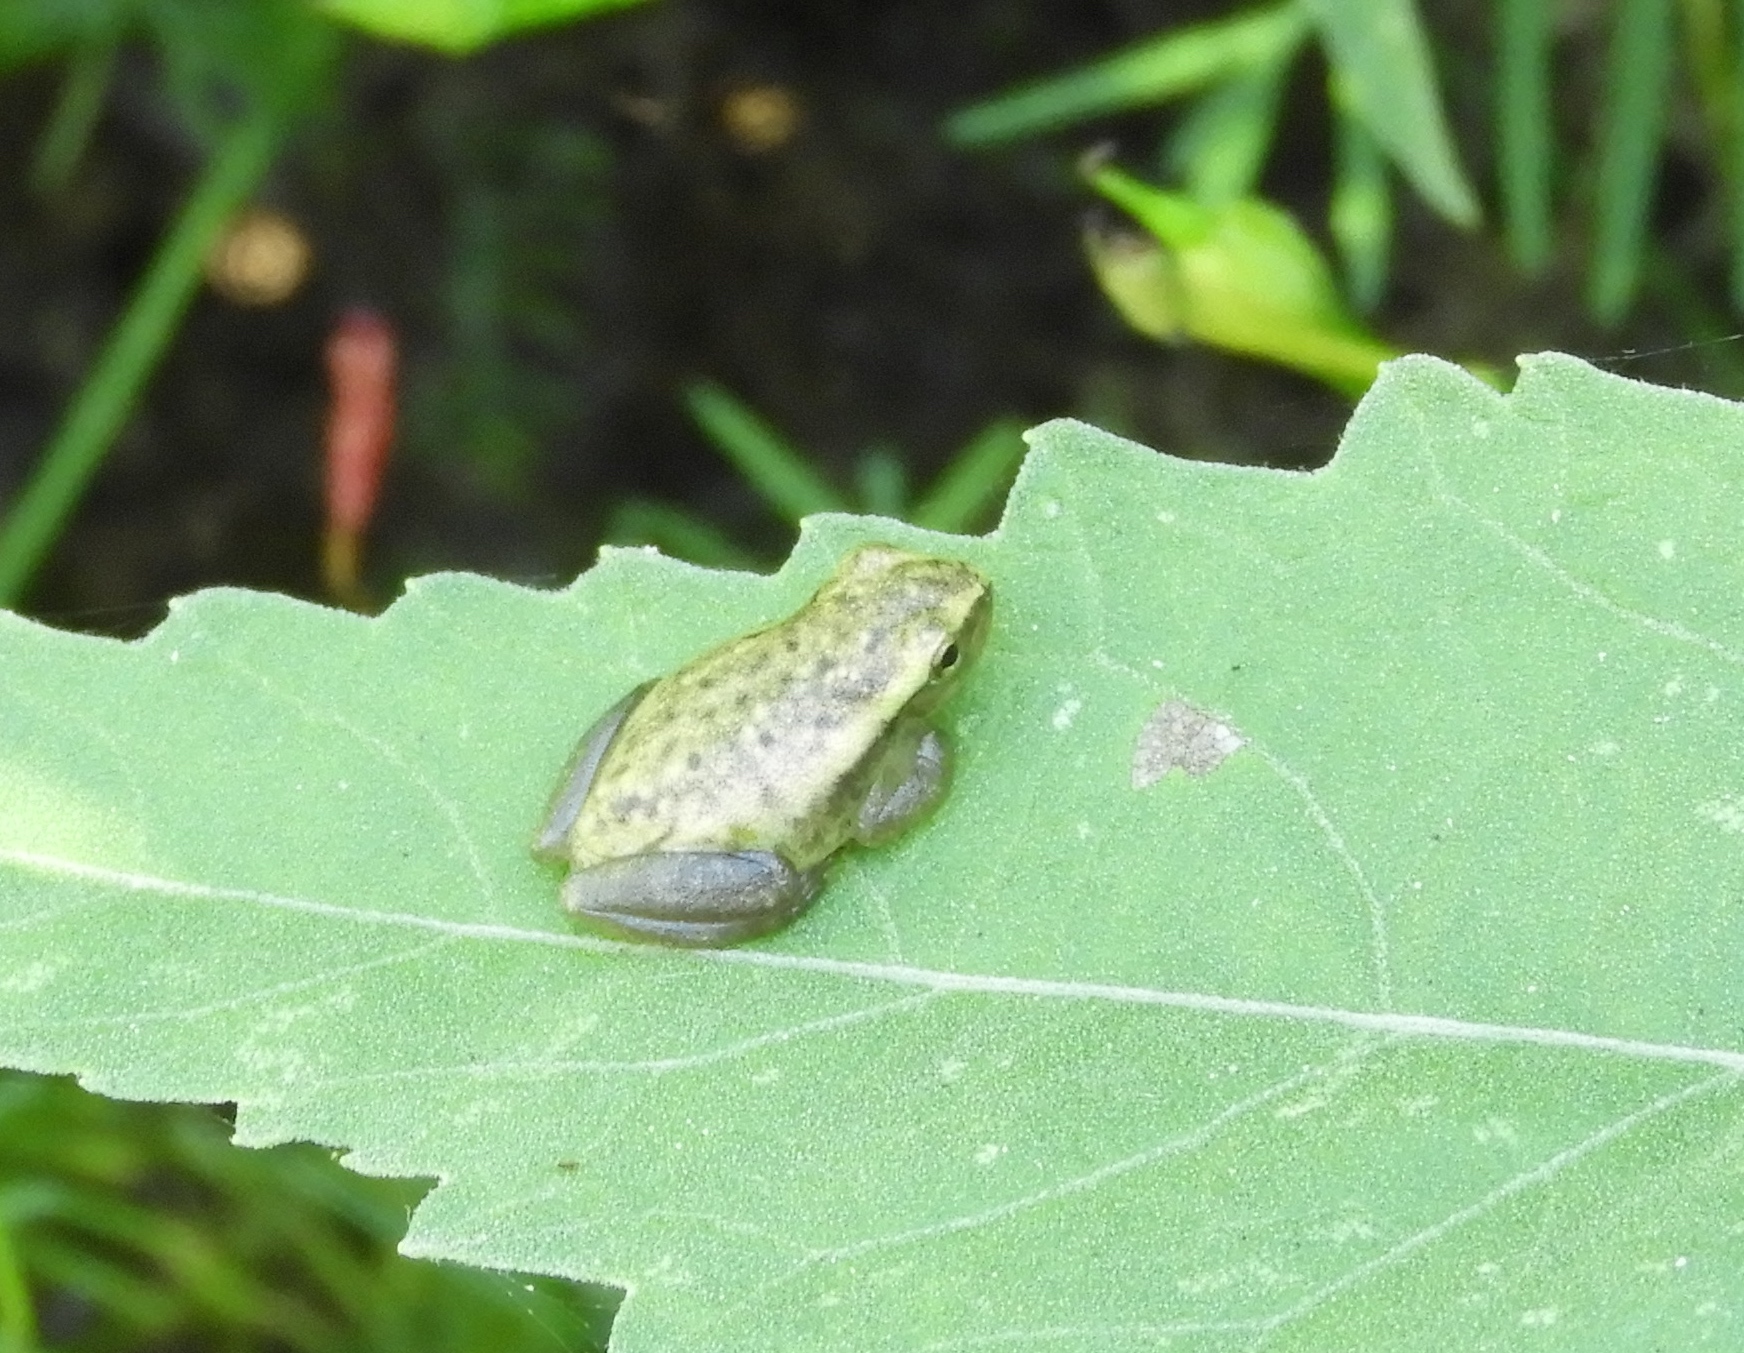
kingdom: Animalia
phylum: Chordata
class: Amphibia
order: Anura
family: Hylidae
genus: Tlalocohyla
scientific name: Tlalocohyla smithii
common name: Dwarf mexican treefrog
